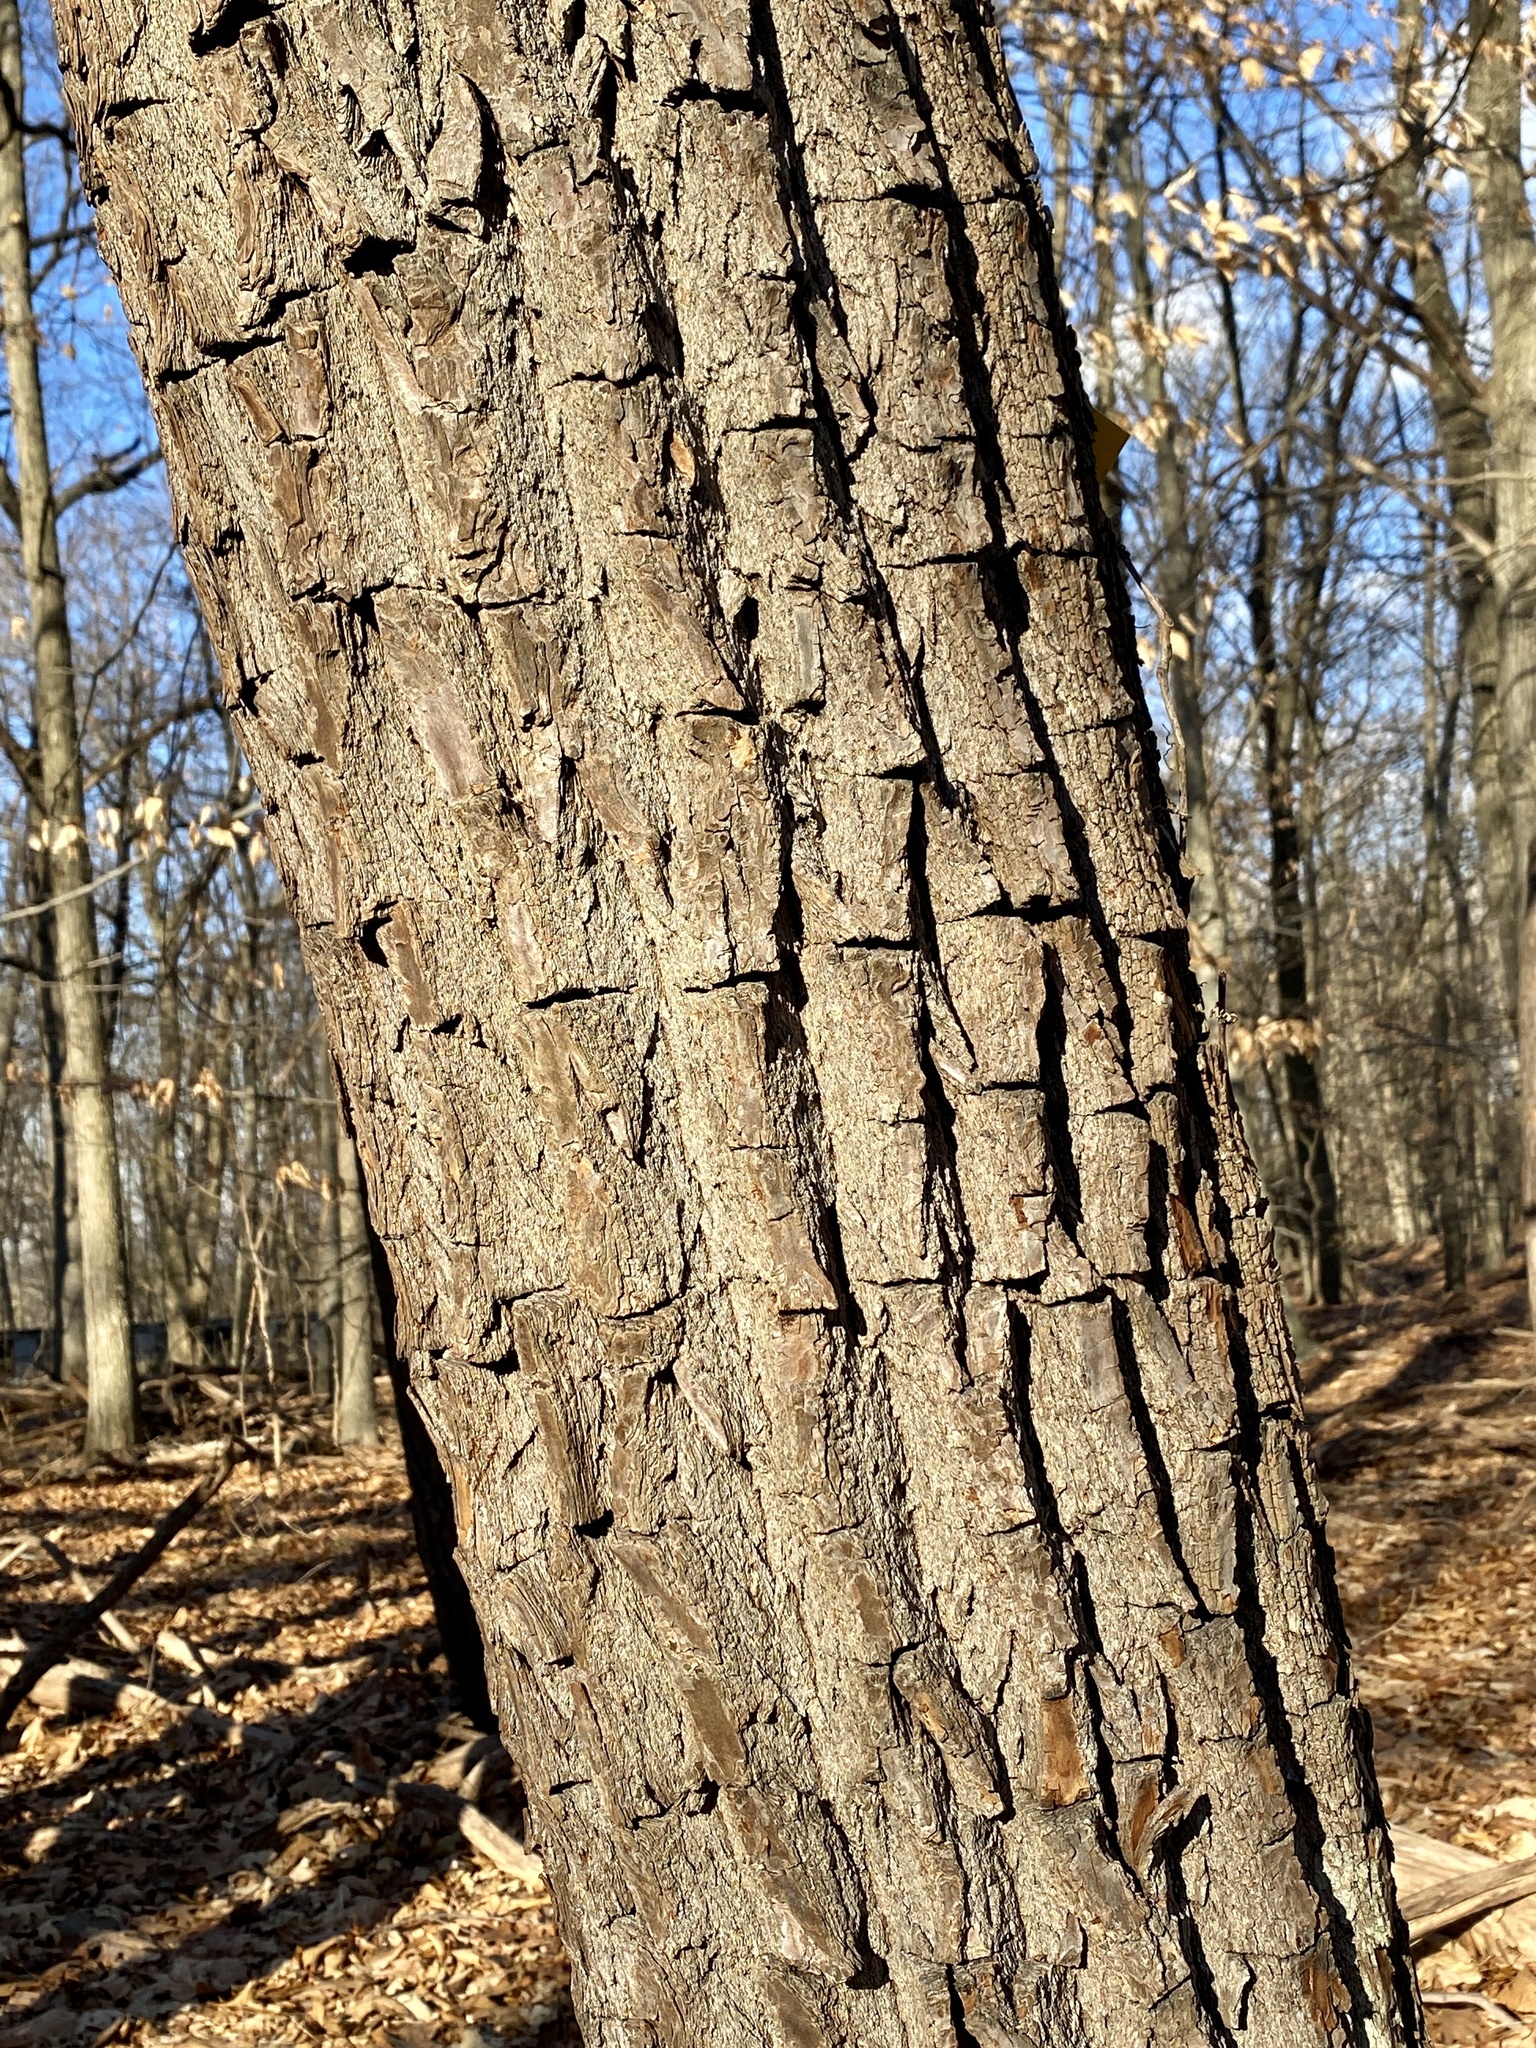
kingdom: Plantae
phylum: Tracheophyta
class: Magnoliopsida
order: Laurales
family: Lauraceae
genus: Sassafras
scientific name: Sassafras albidum
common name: Sassafras
